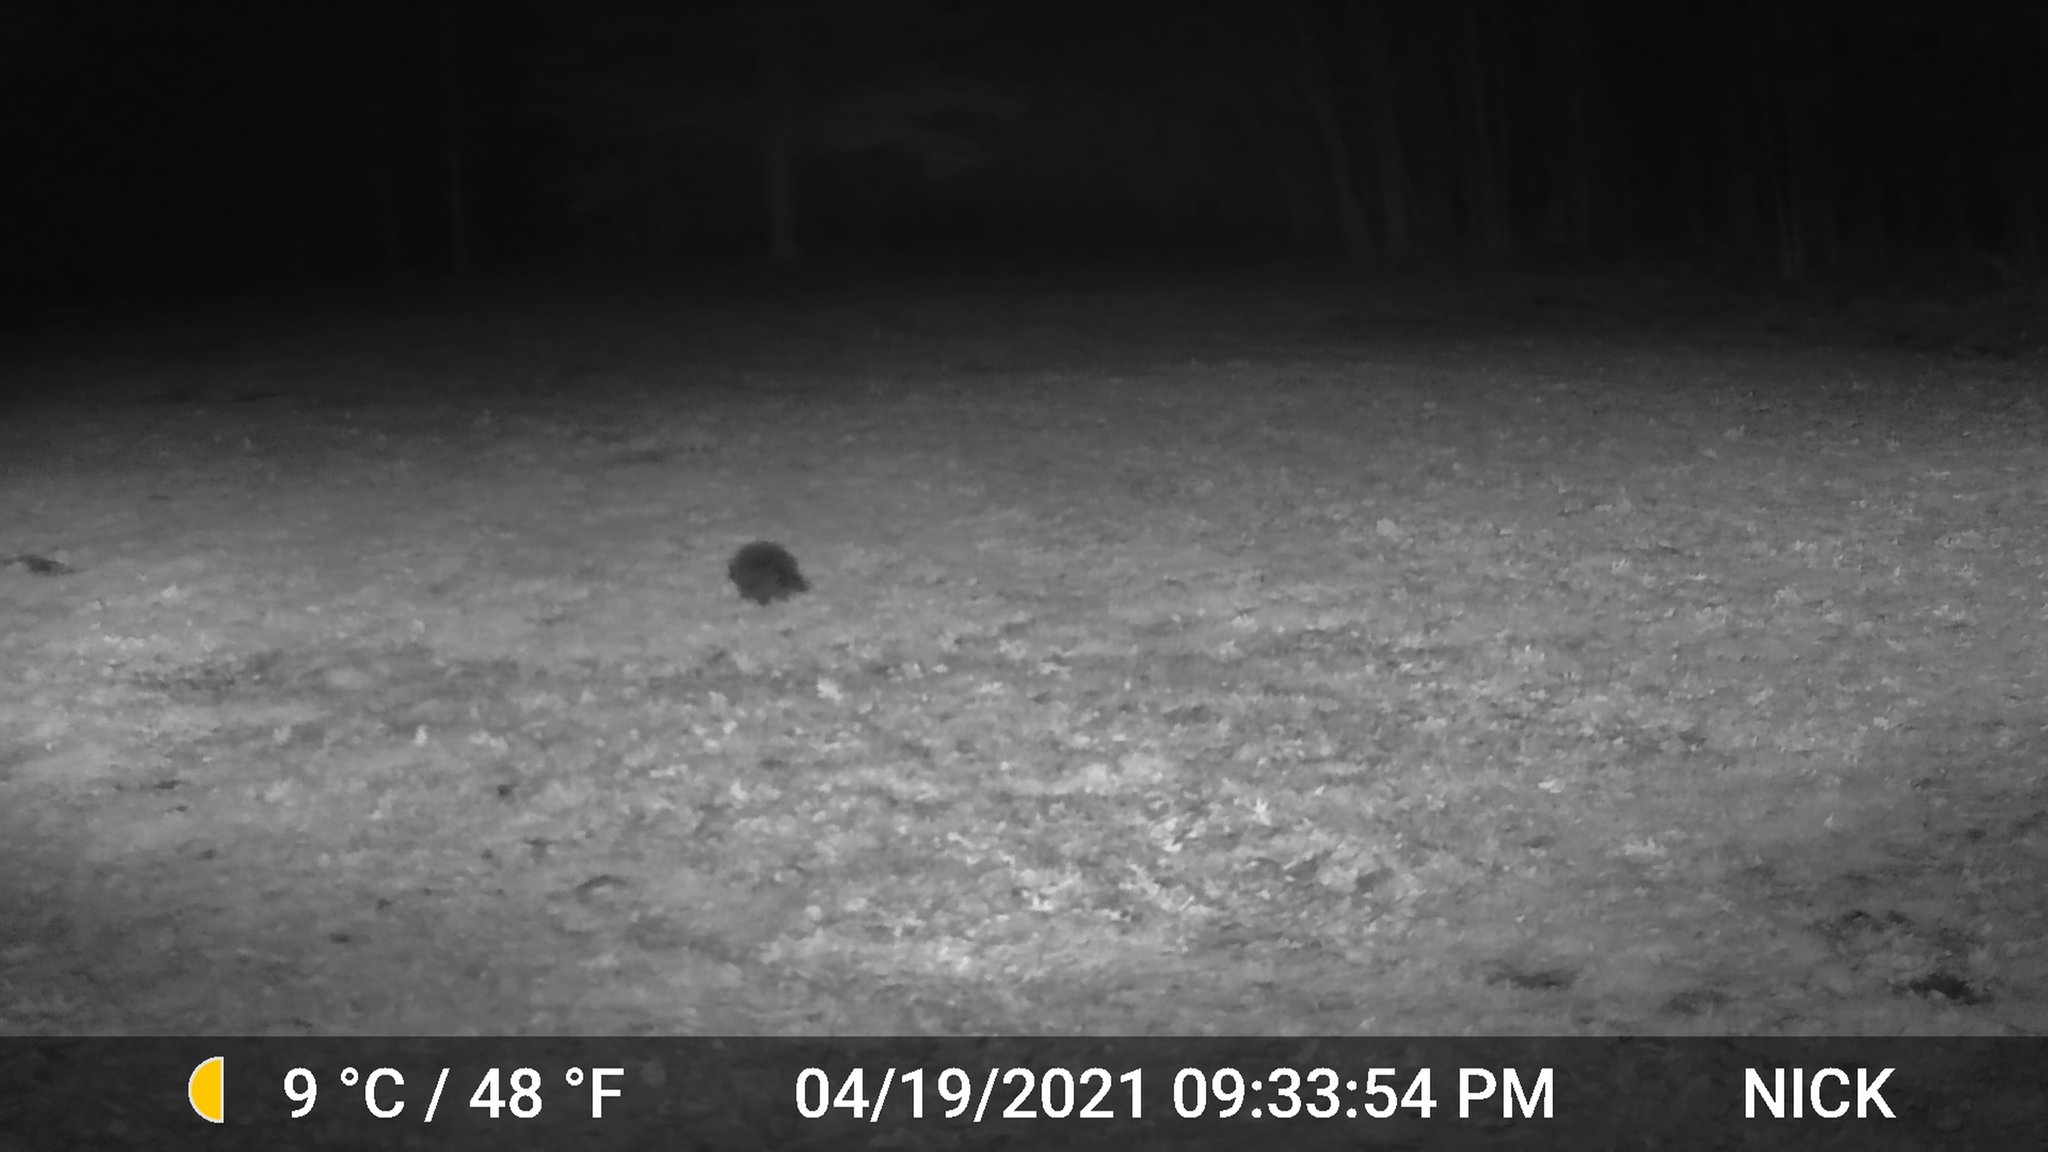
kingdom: Animalia
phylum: Chordata
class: Mammalia
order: Rodentia
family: Erethizontidae
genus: Erethizon
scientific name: Erethizon dorsatus
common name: North american porcupine
